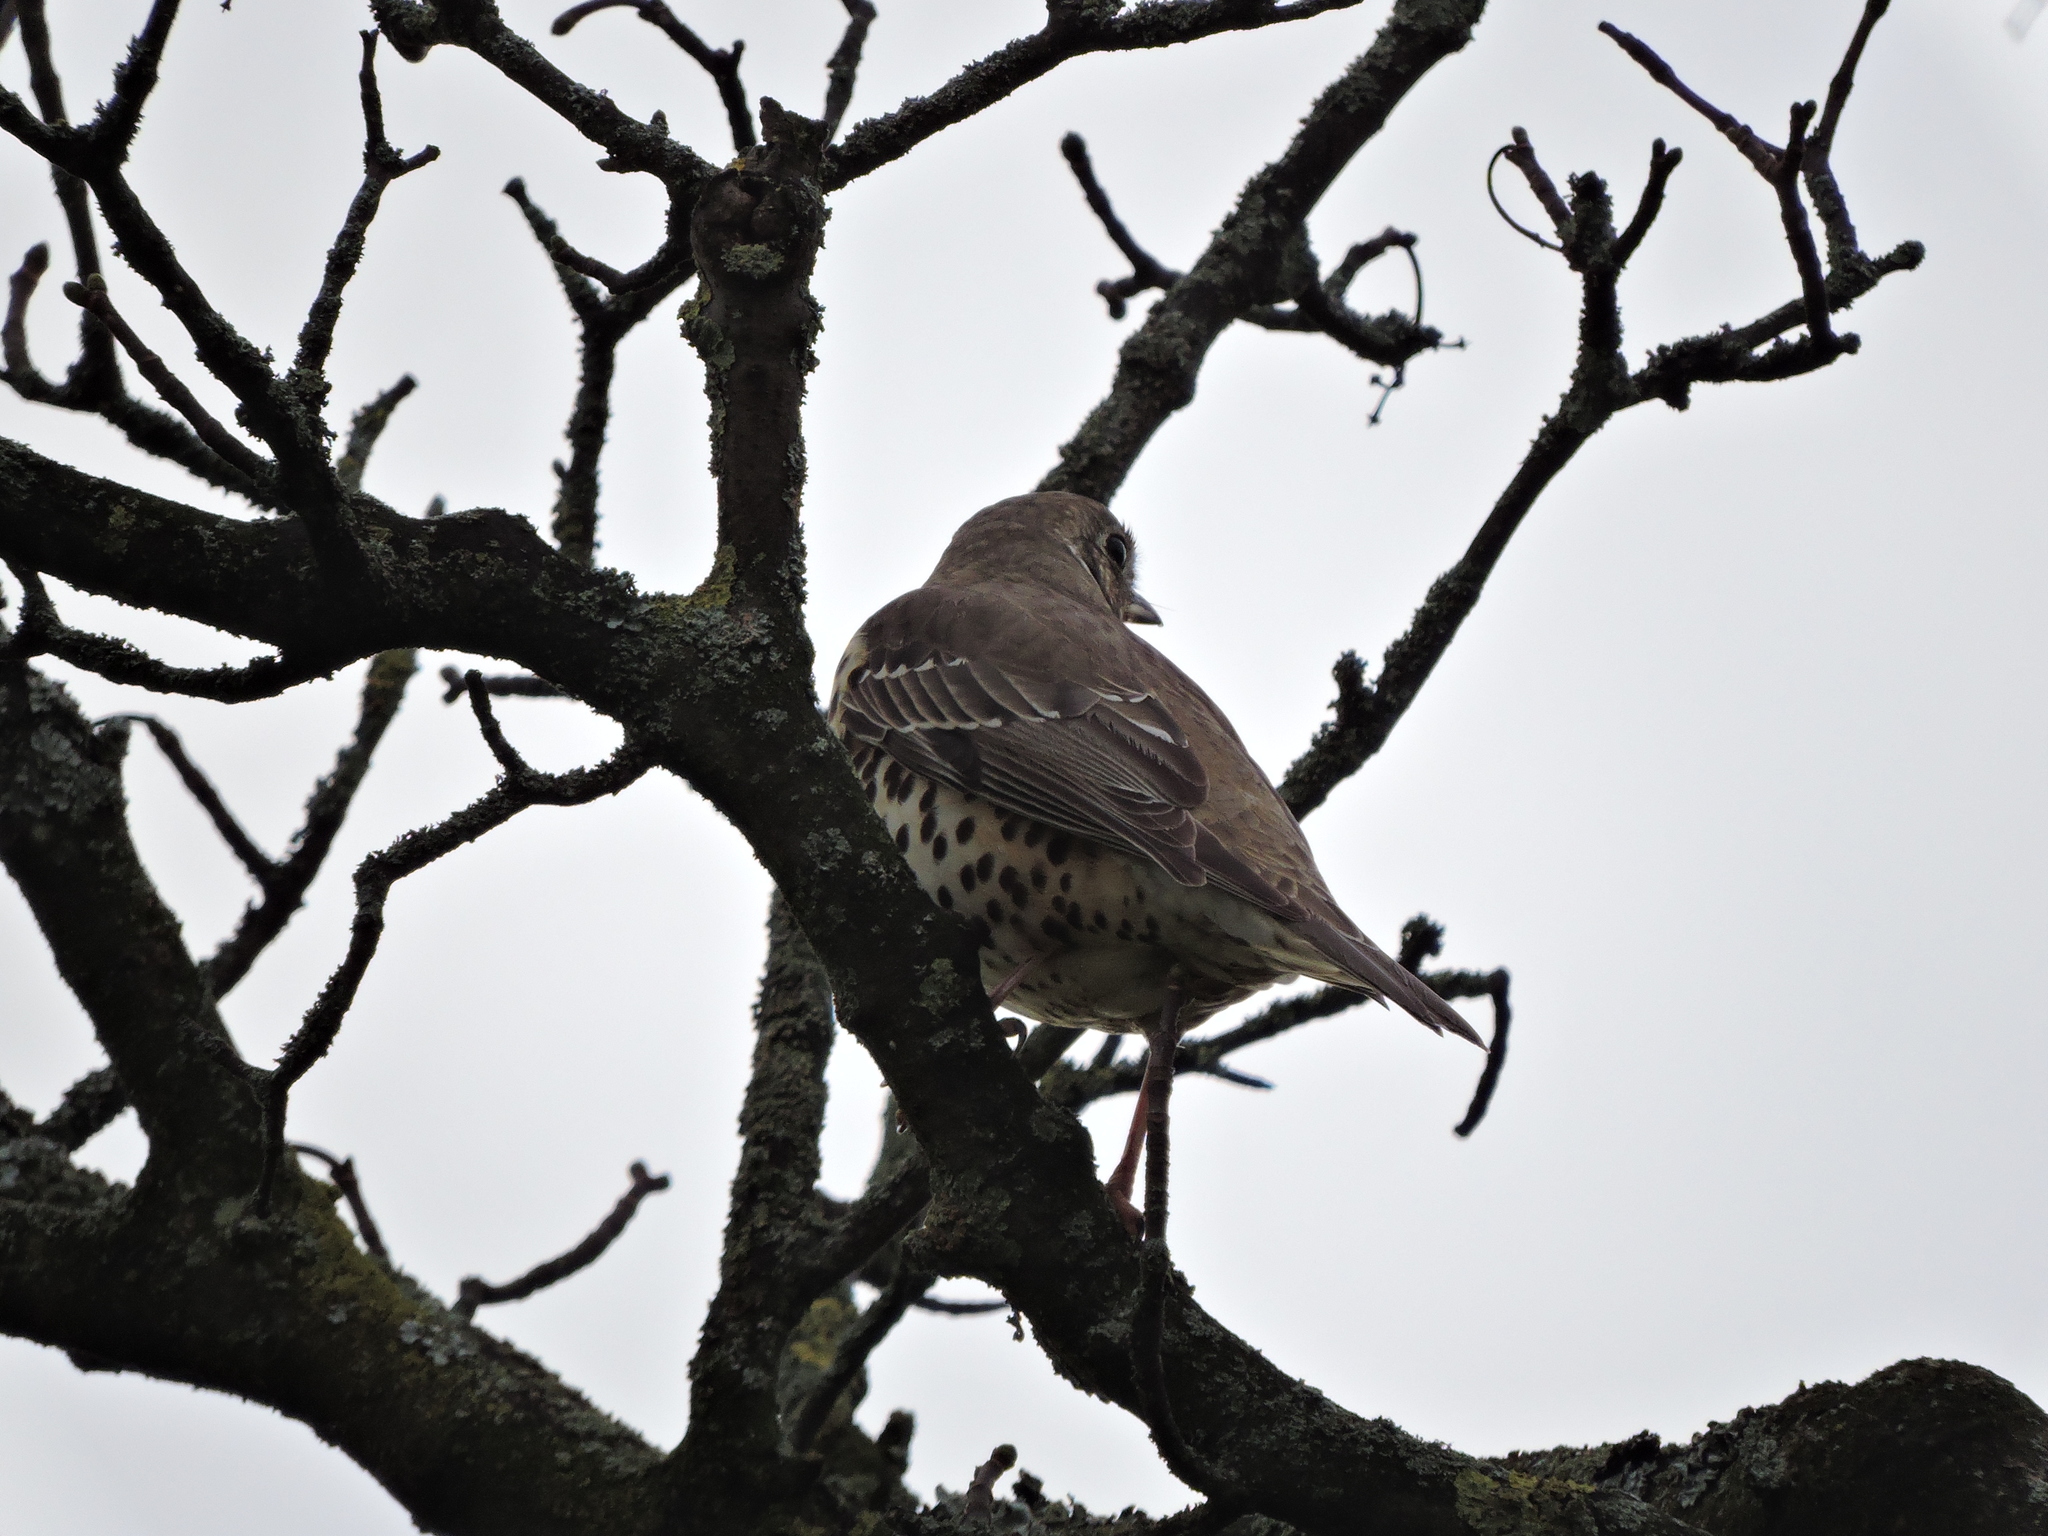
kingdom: Animalia
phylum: Chordata
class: Aves
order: Passeriformes
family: Turdidae
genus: Turdus
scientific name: Turdus philomelos
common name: Song thrush
